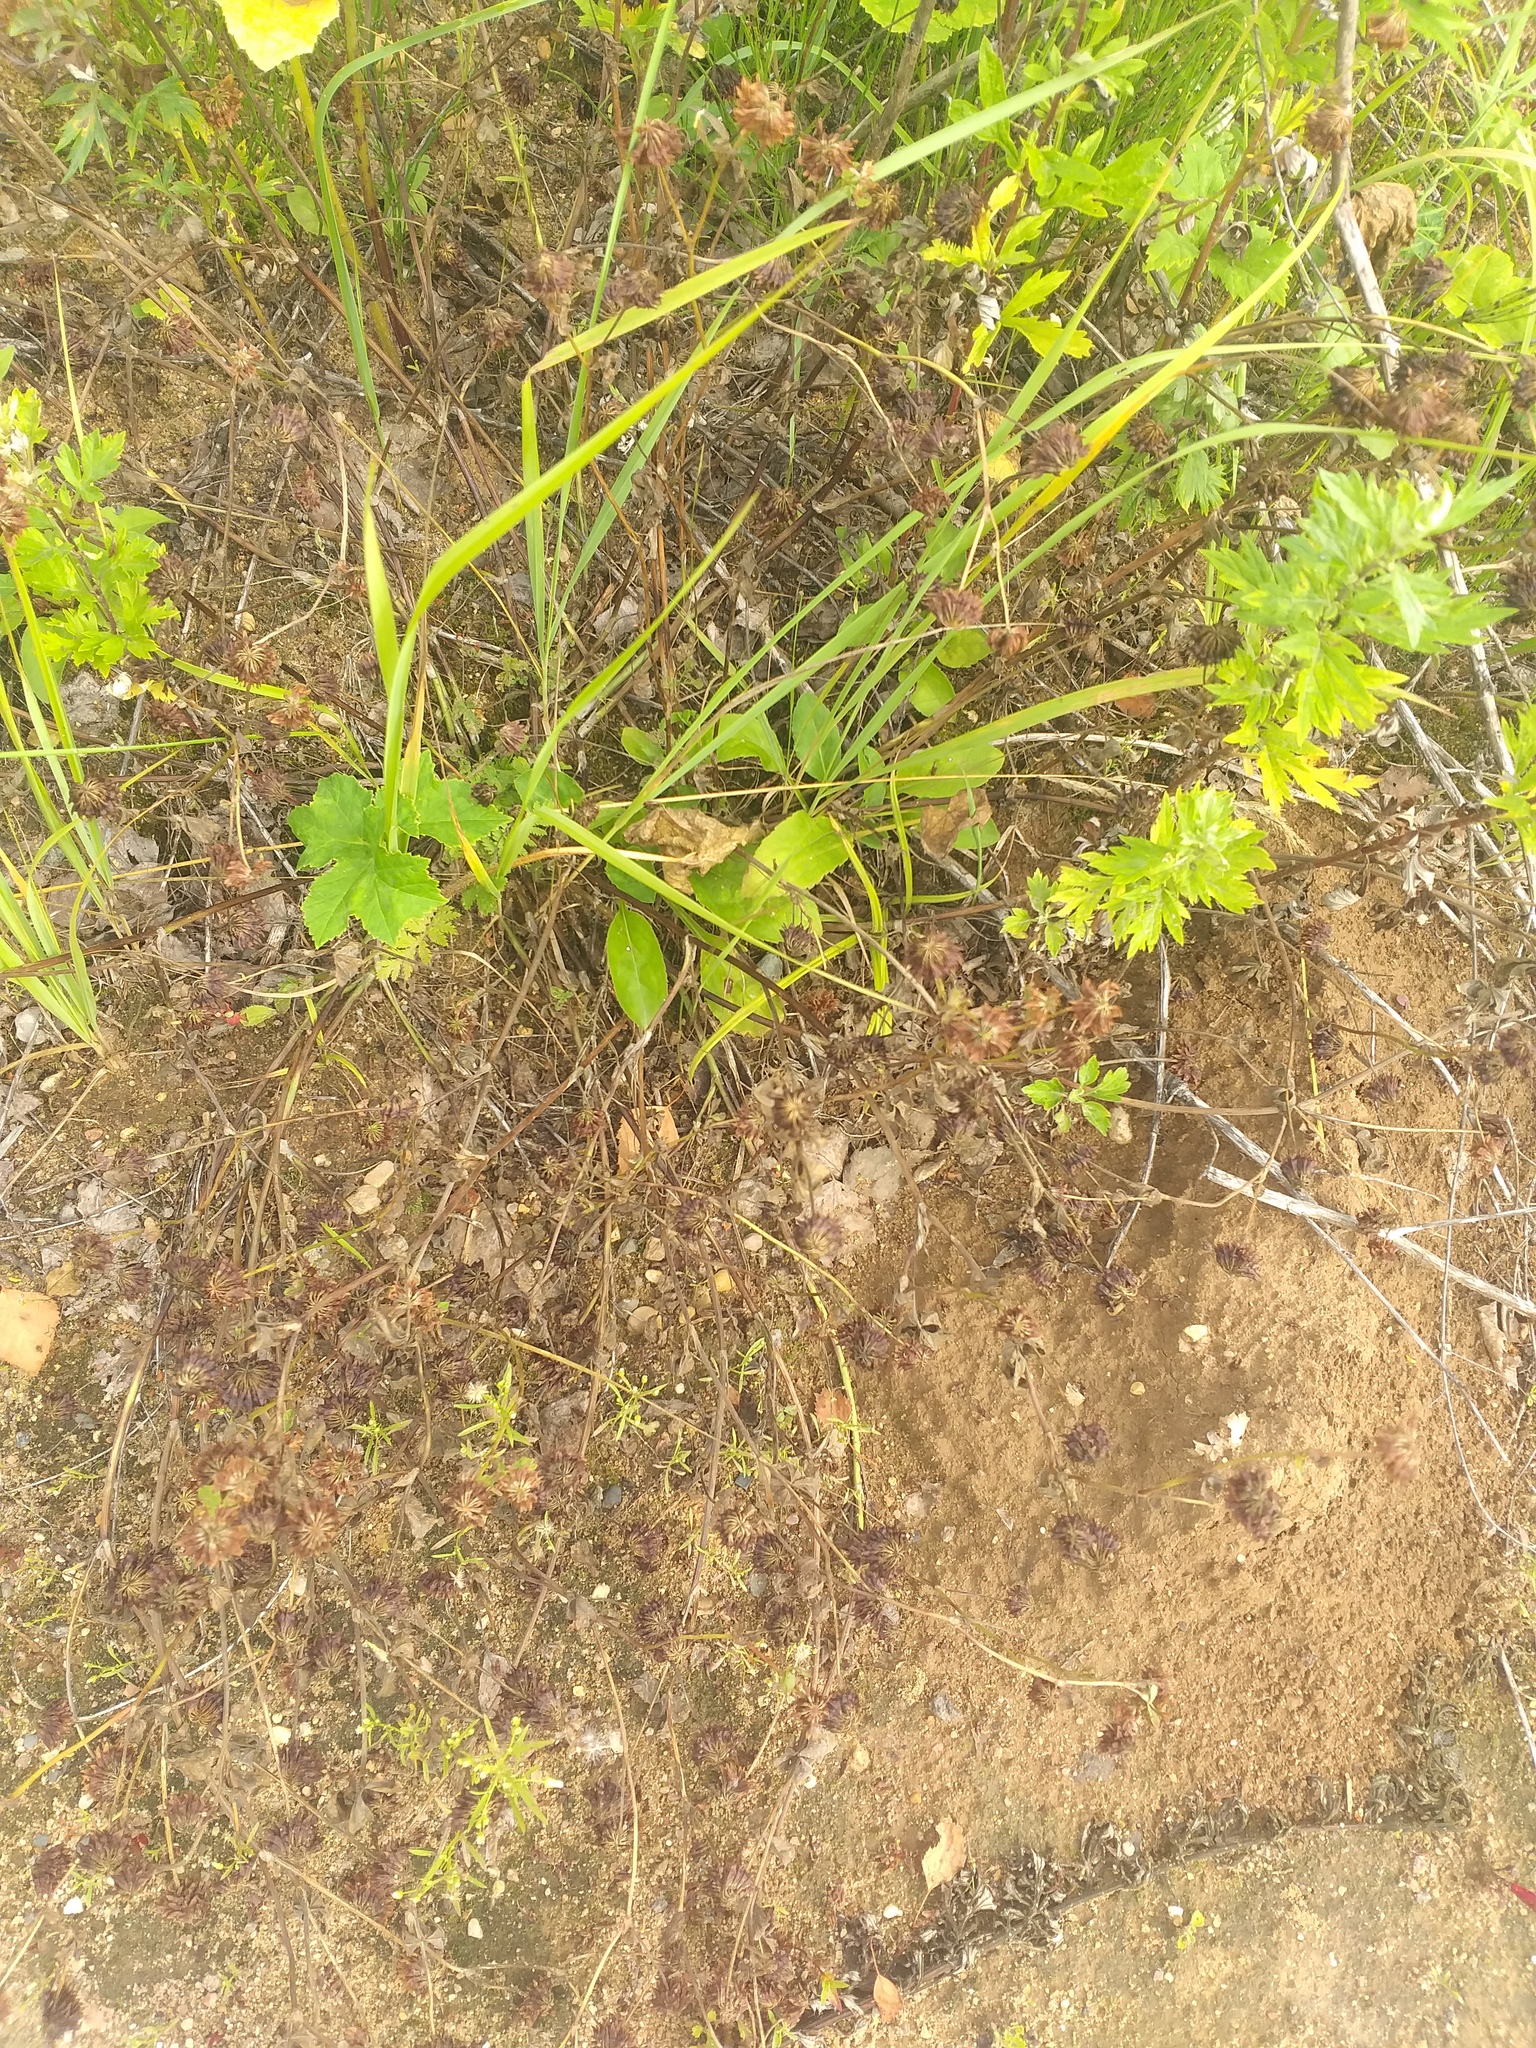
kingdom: Plantae
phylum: Tracheophyta
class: Magnoliopsida
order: Fabales
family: Fabaceae
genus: Trifolium
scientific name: Trifolium hybridum
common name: Alsike clover
